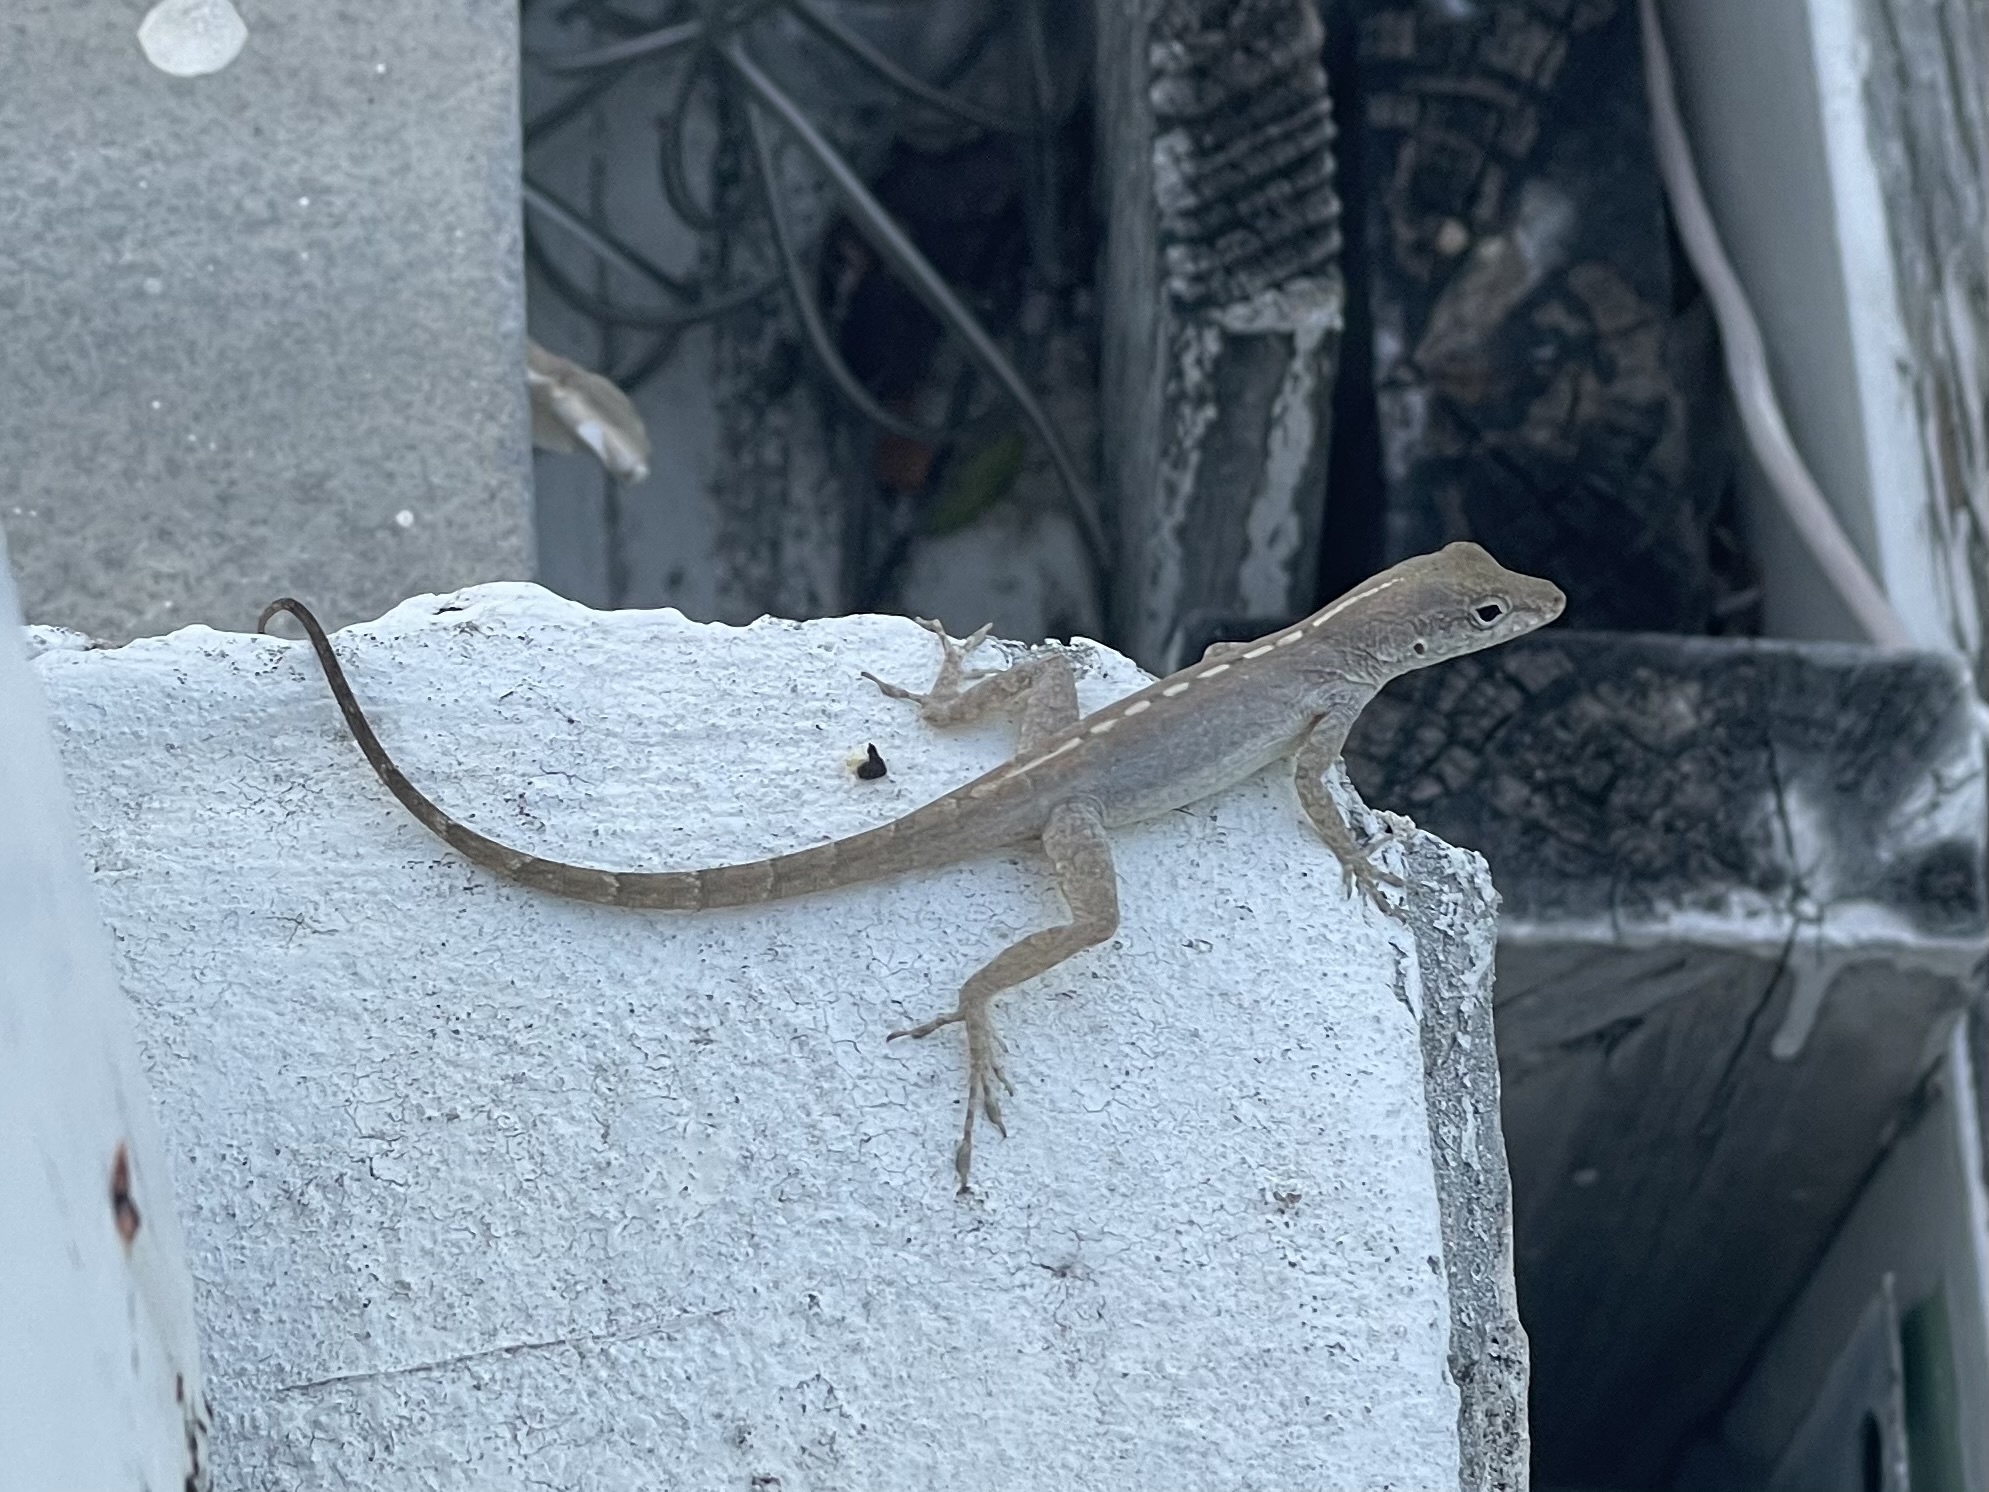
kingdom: Animalia
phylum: Chordata
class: Squamata
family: Dactyloidae
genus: Anolis
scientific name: Anolis scriptus
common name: Silver key anole
